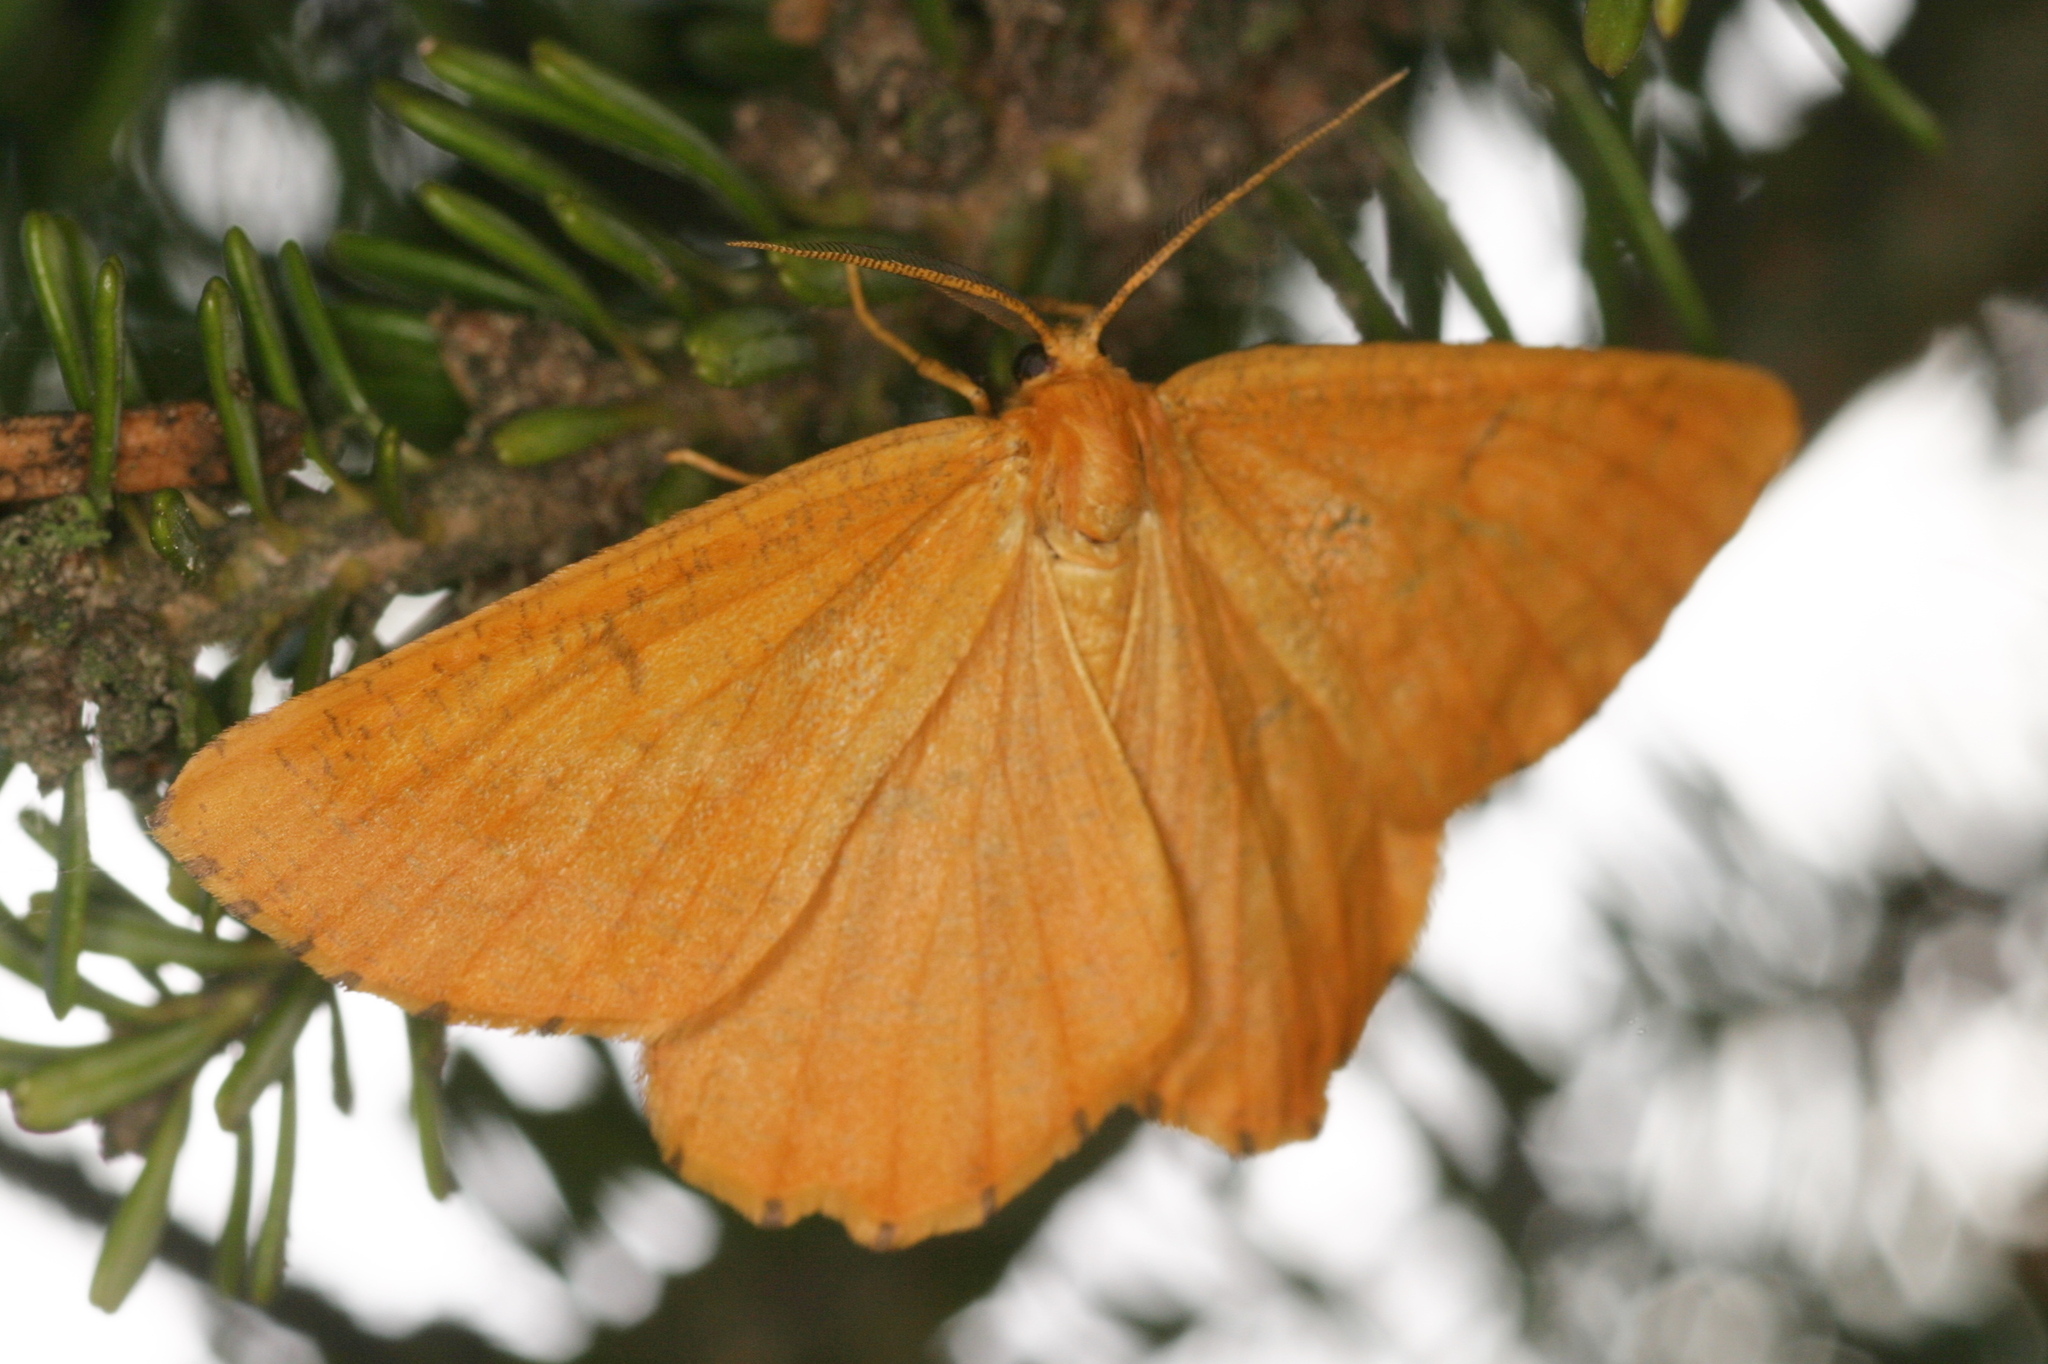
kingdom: Animalia
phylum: Arthropoda
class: Insecta
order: Lepidoptera
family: Geometridae
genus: Angerona
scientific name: Angerona prunaria
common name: Orange moth
